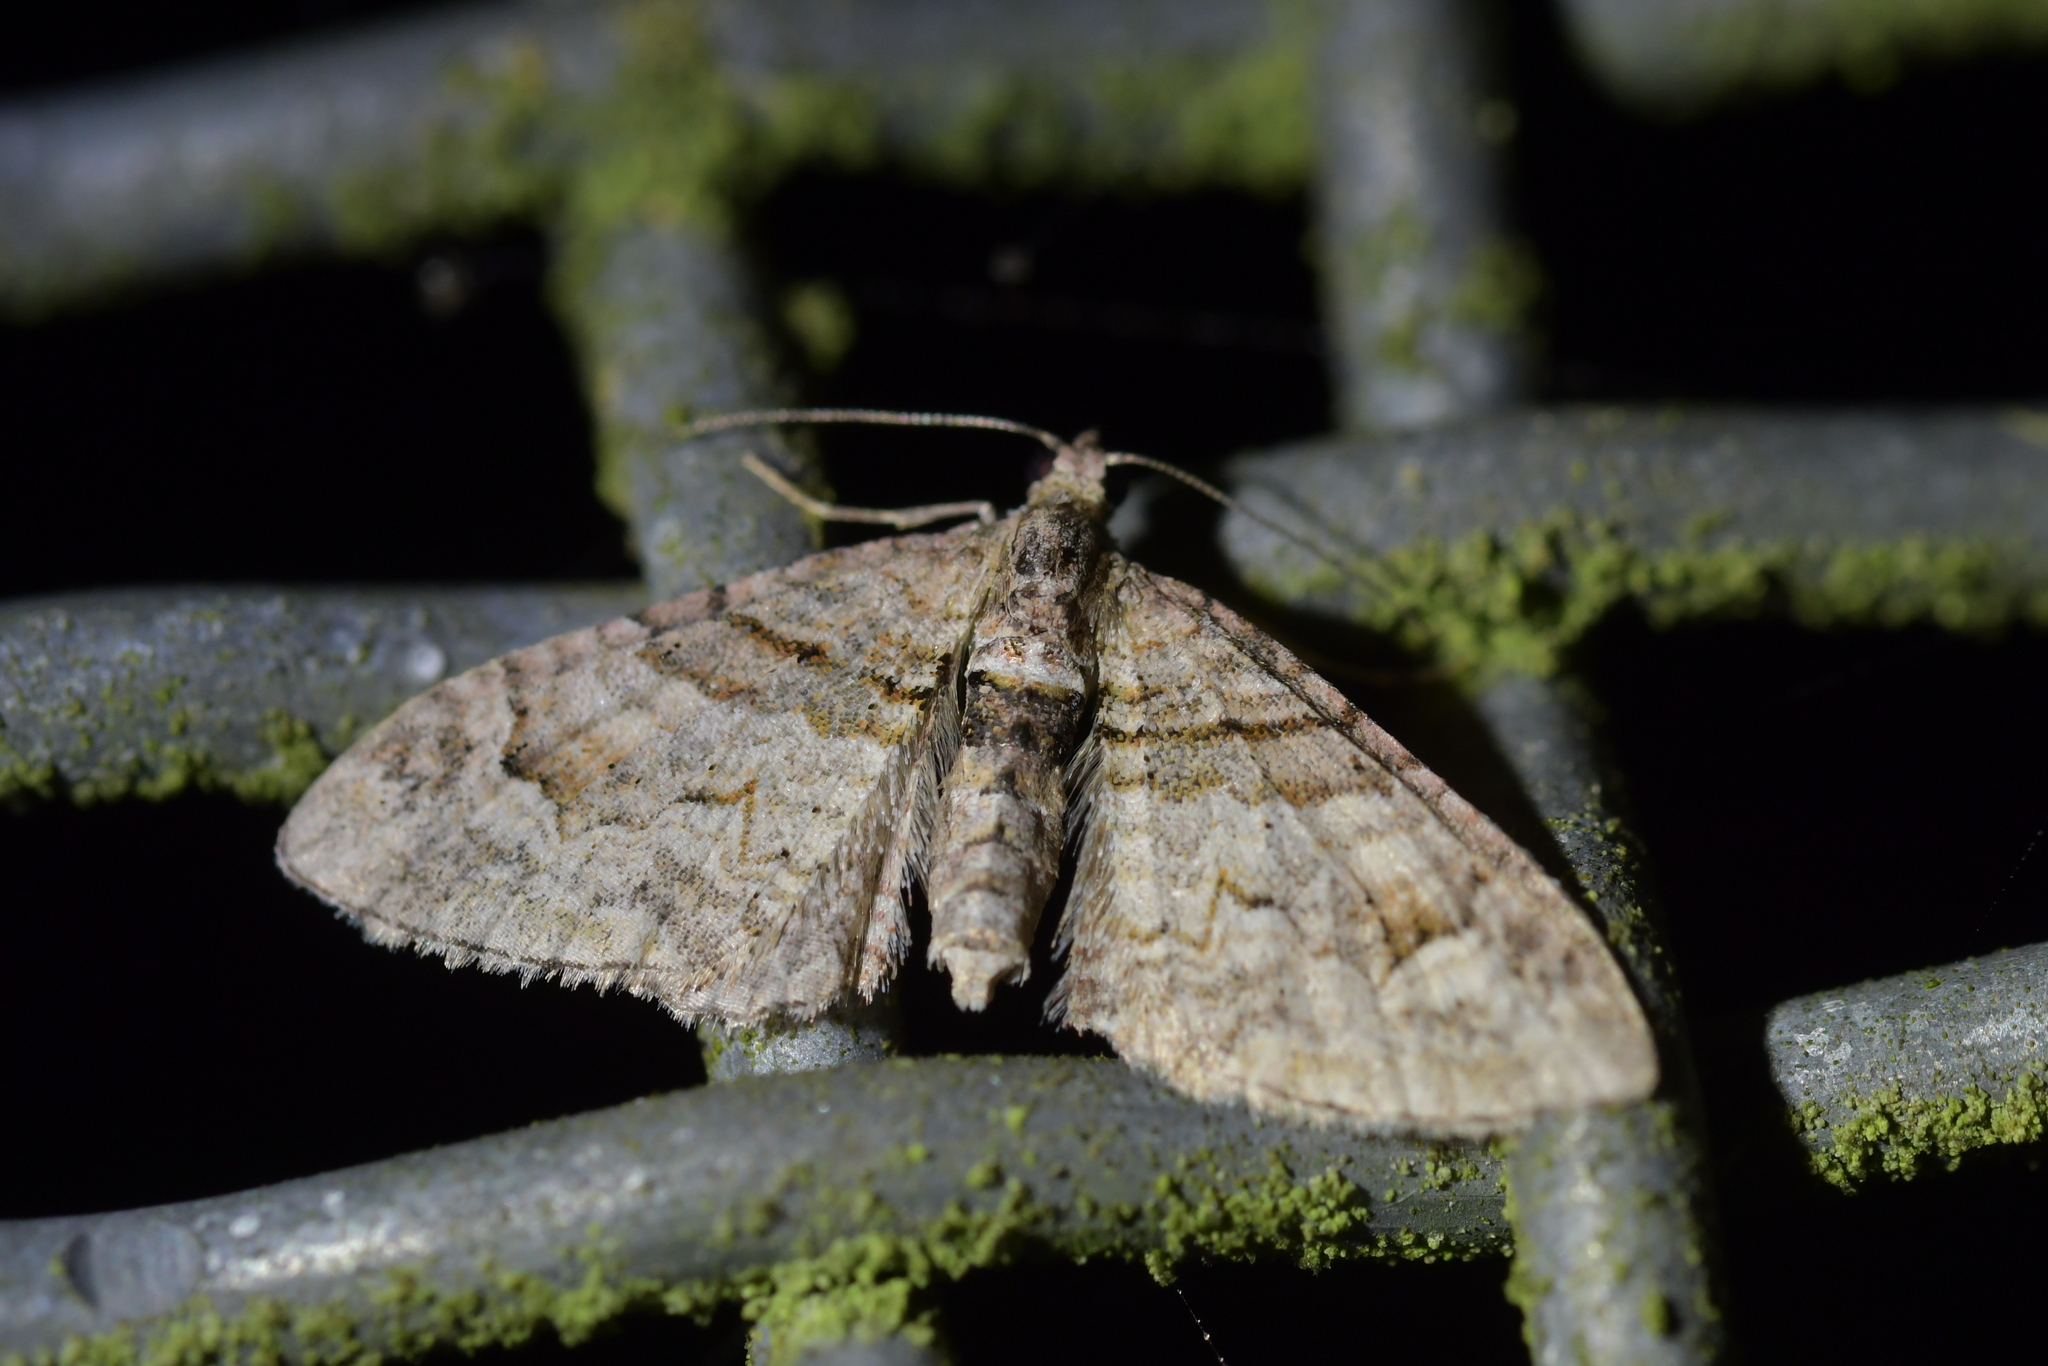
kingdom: Animalia
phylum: Arthropoda
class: Insecta
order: Lepidoptera
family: Geometridae
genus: Phrissogonus
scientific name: Phrissogonus laticostata
